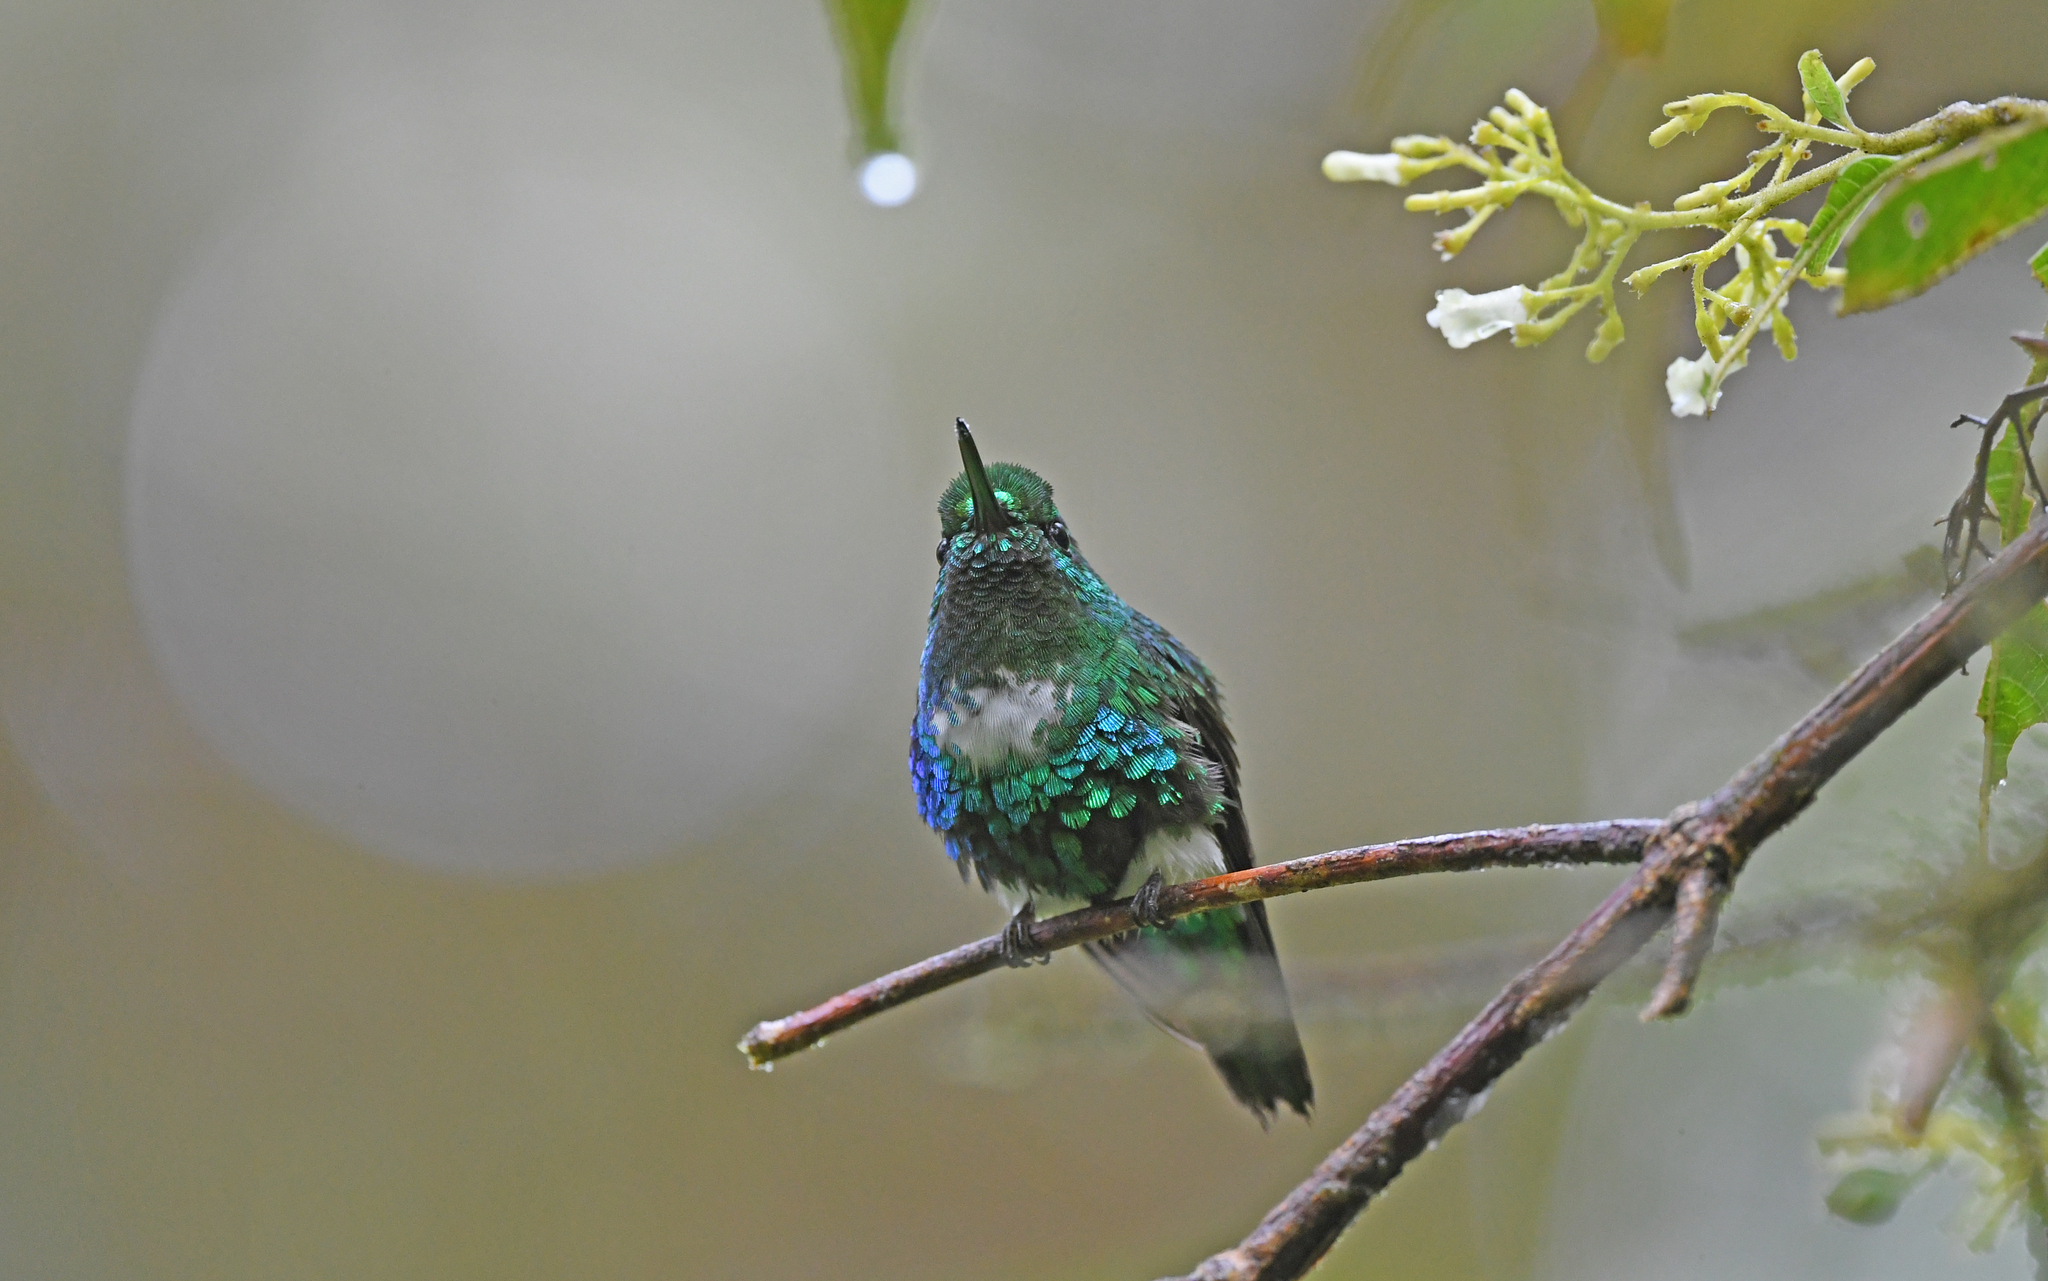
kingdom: Animalia
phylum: Chordata
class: Aves
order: Apodiformes
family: Trochilidae
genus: Eriocnemis
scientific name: Eriocnemis aline
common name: Emerald-bellied puffleg
